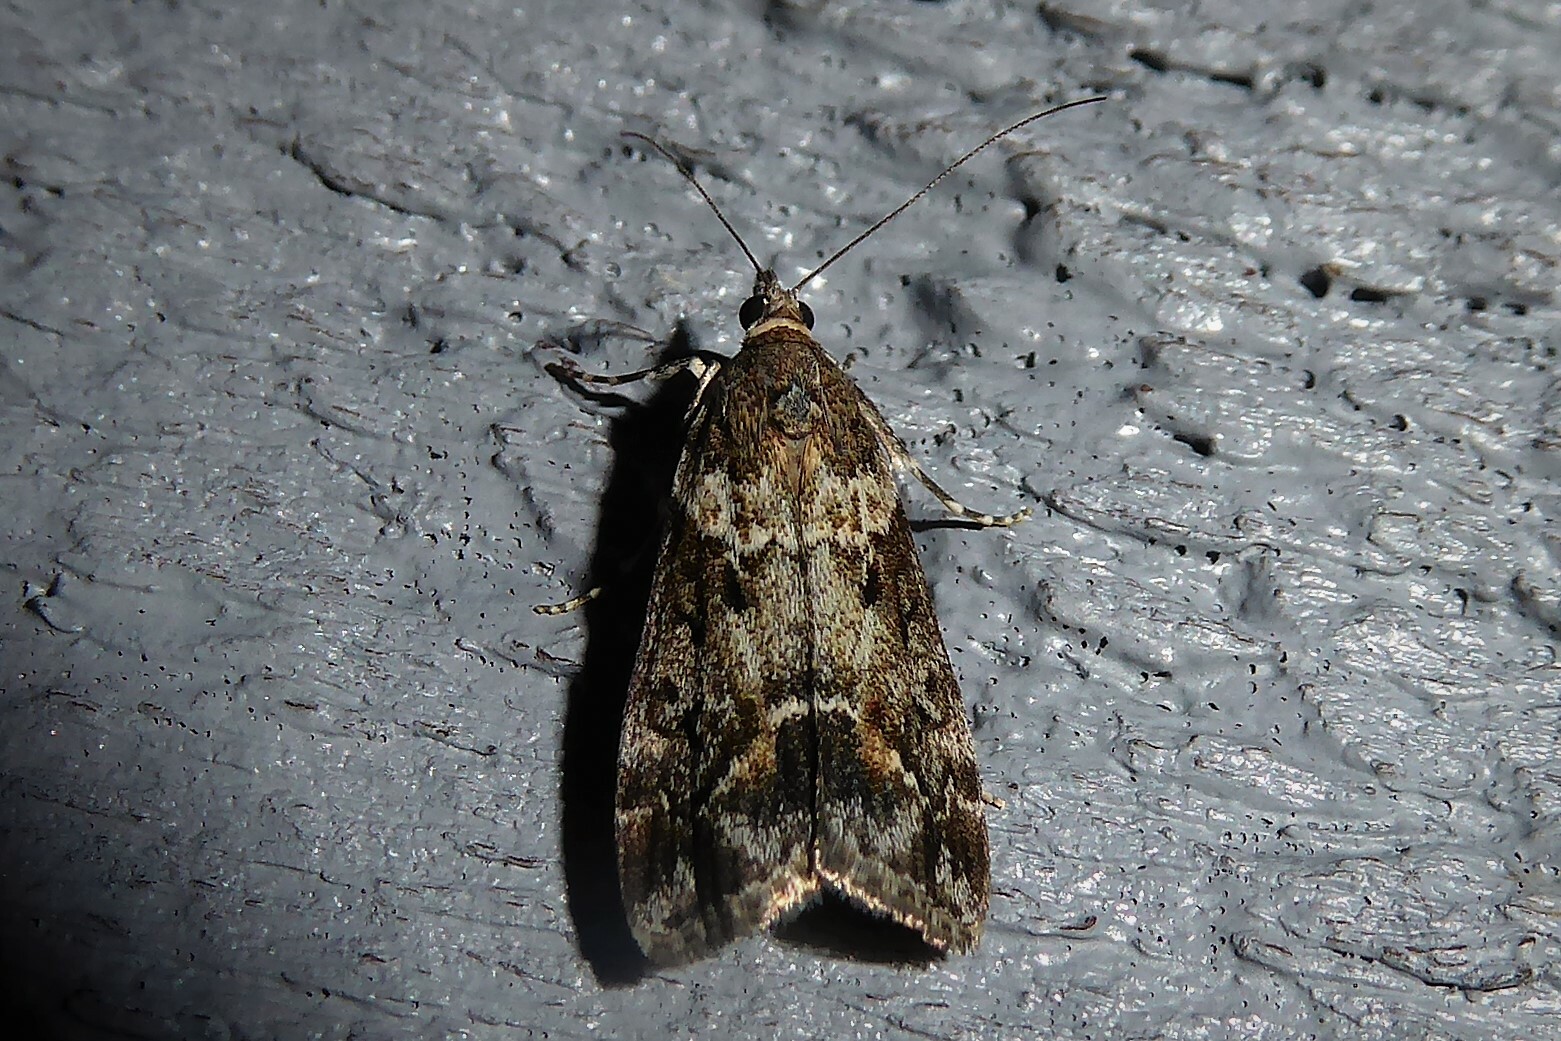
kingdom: Animalia
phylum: Arthropoda
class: Insecta
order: Lepidoptera
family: Crambidae
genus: Eudonia
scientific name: Eudonia submarginalis
